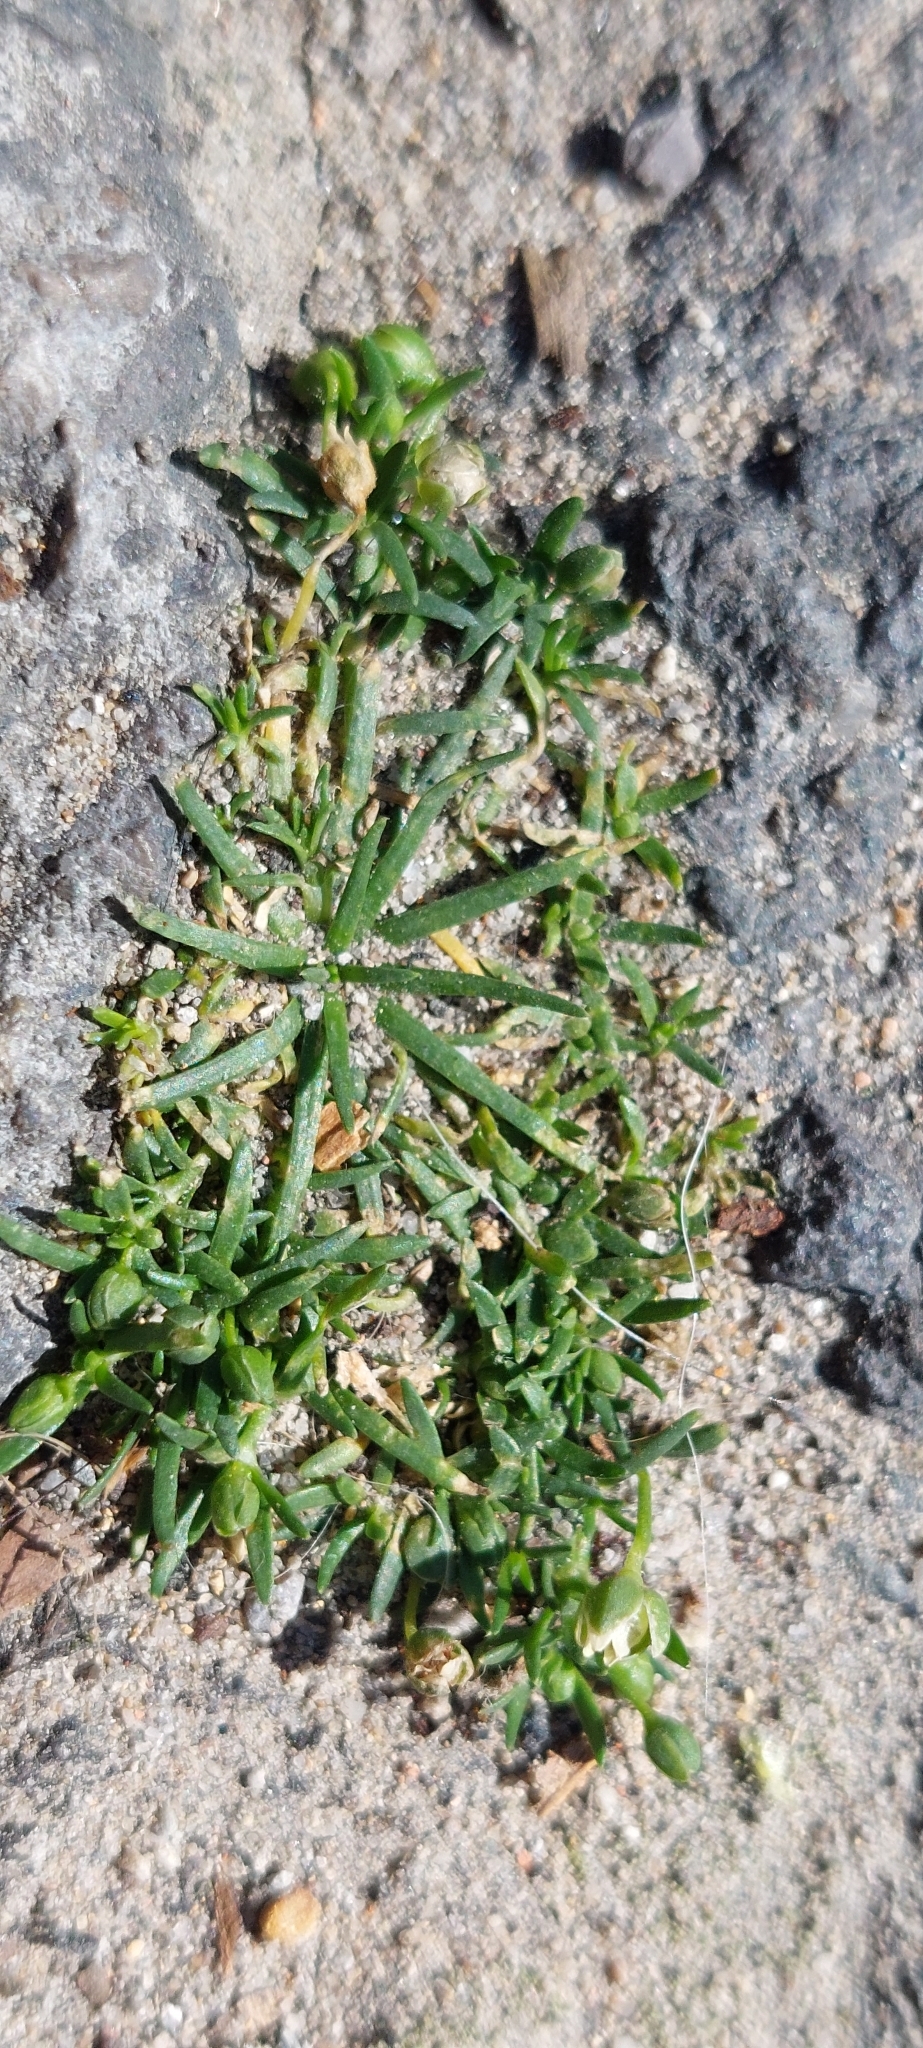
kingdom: Plantae
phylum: Tracheophyta
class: Magnoliopsida
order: Caryophyllales
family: Caryophyllaceae
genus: Sagina
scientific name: Sagina procumbens
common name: Procumbent pearlwort
